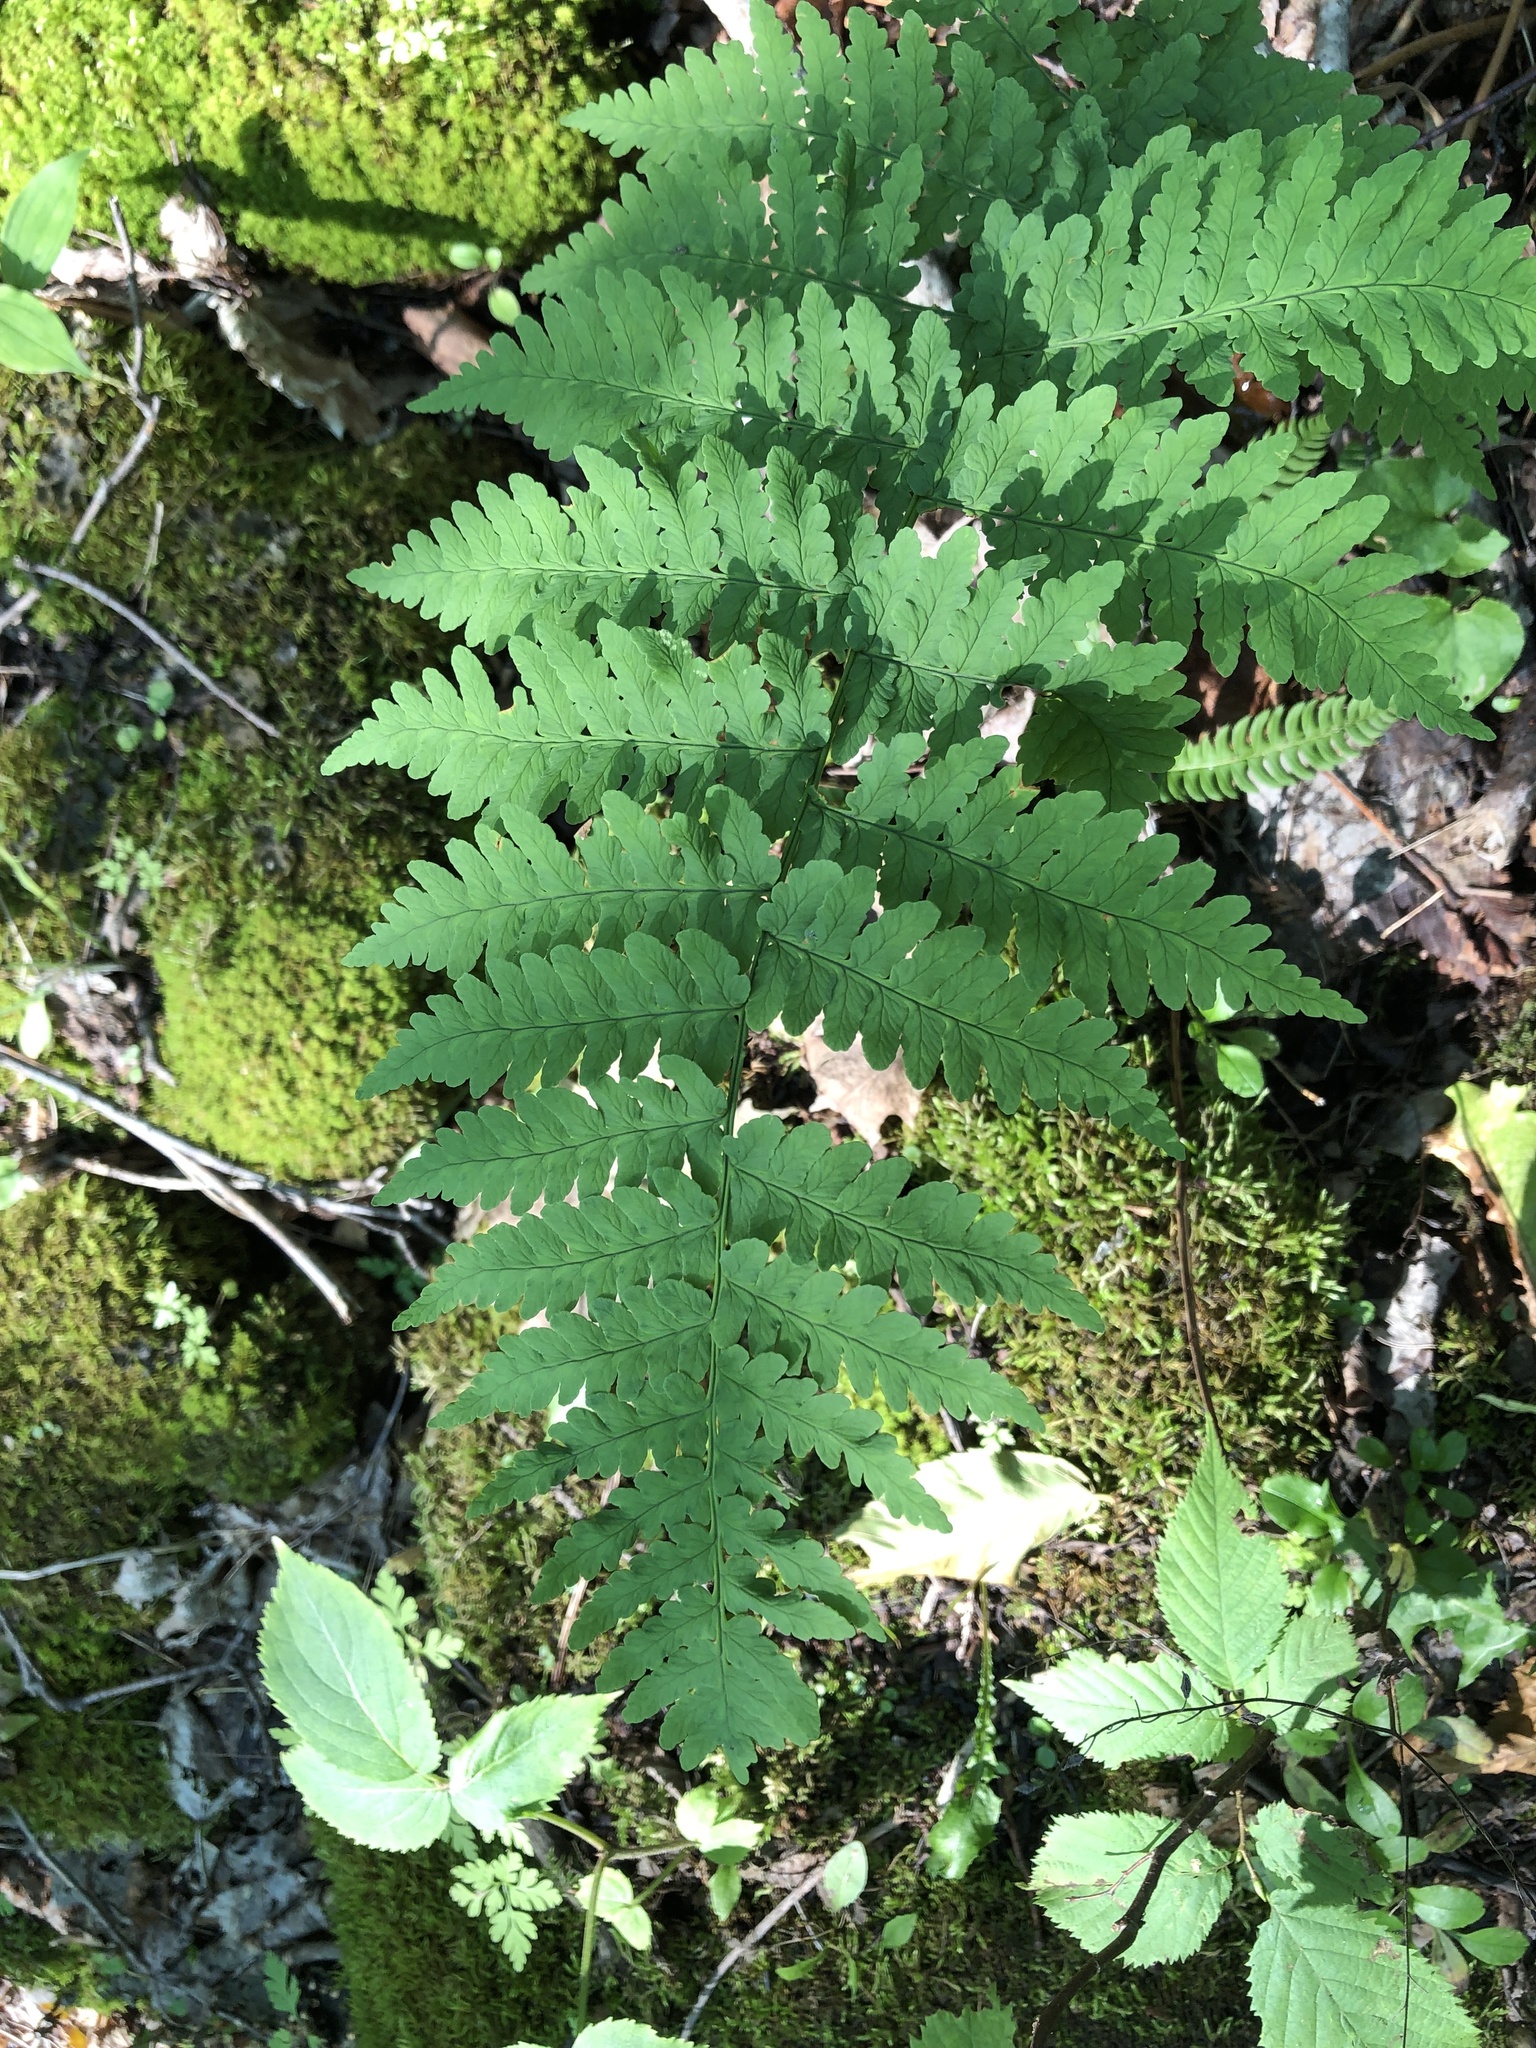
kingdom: Plantae
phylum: Tracheophyta
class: Polypodiopsida
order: Polypodiales
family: Dryopteridaceae
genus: Dryopteris
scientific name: Dryopteris marginalis
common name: Marginal wood fern
